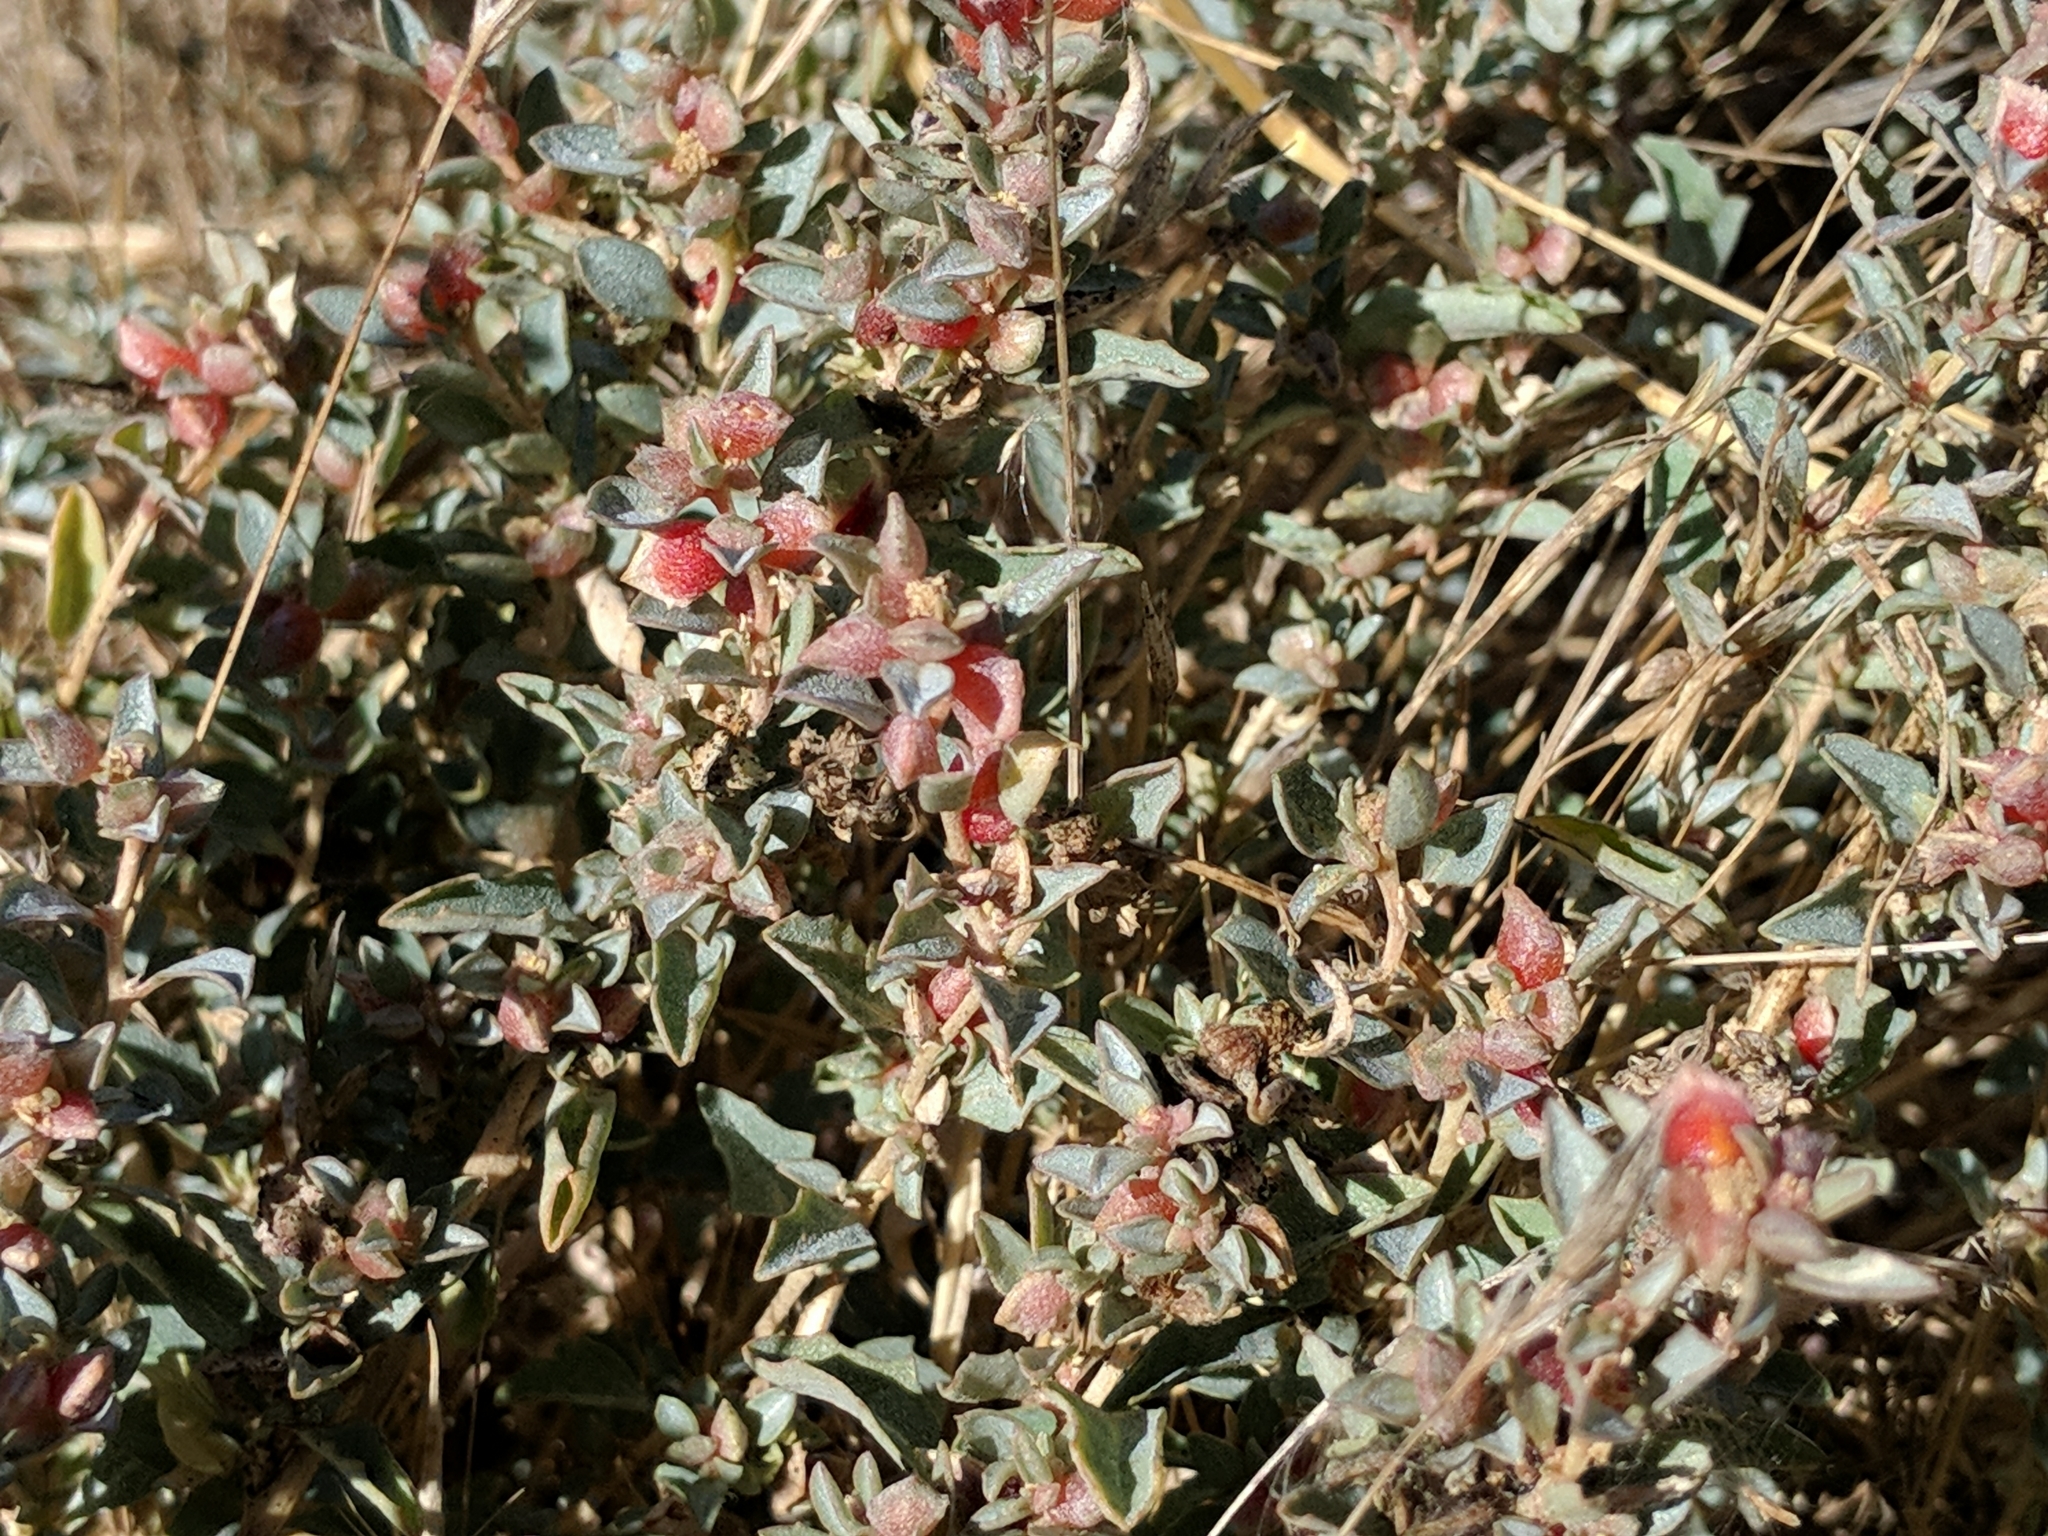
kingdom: Plantae
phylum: Tracheophyta
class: Magnoliopsida
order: Caryophyllales
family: Amaranthaceae
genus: Atriplex
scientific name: Atriplex semibaccata
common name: Australian saltbush
